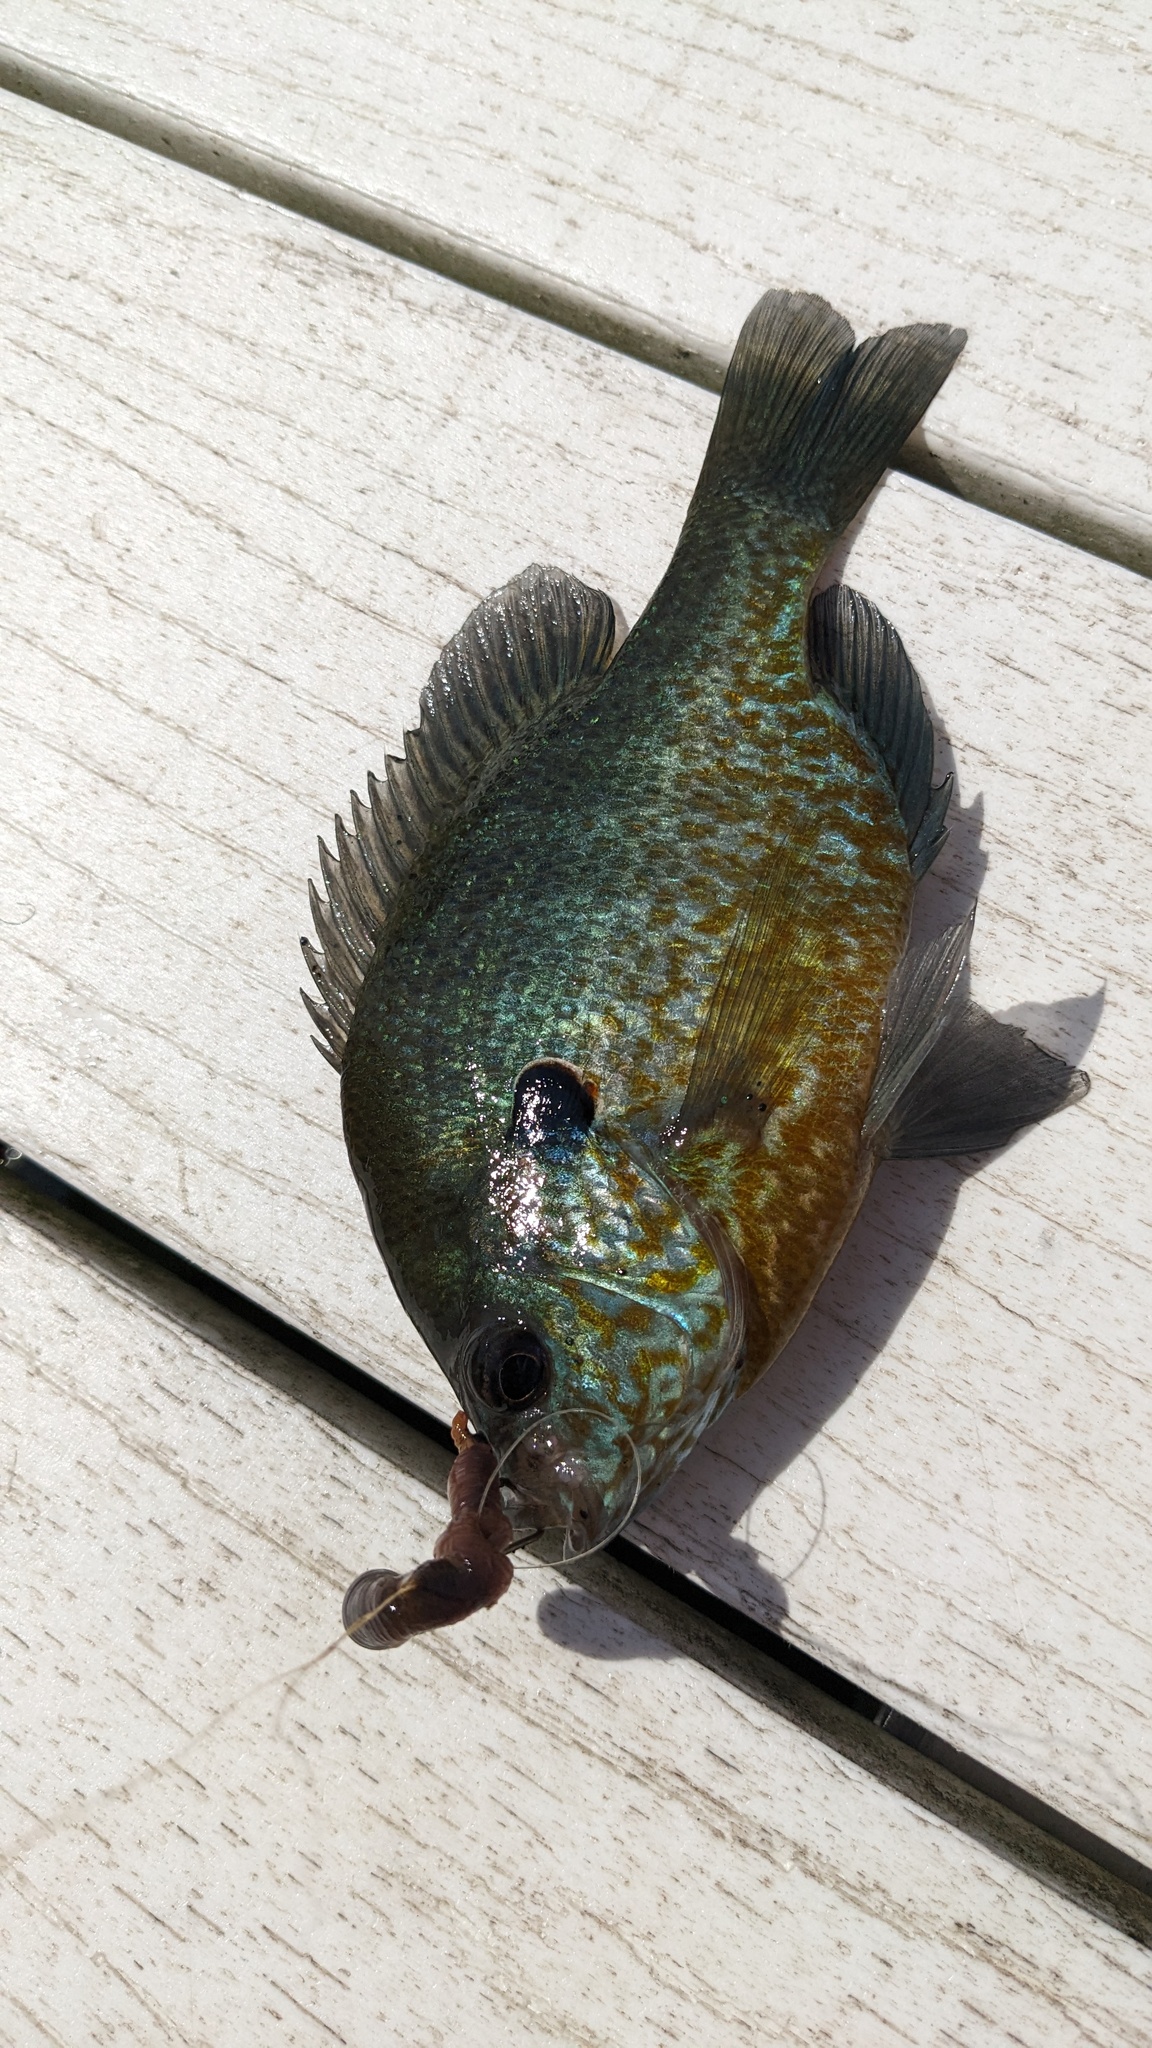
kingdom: Animalia
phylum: Chordata
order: Perciformes
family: Centrarchidae
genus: Lepomis
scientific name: Lepomis
